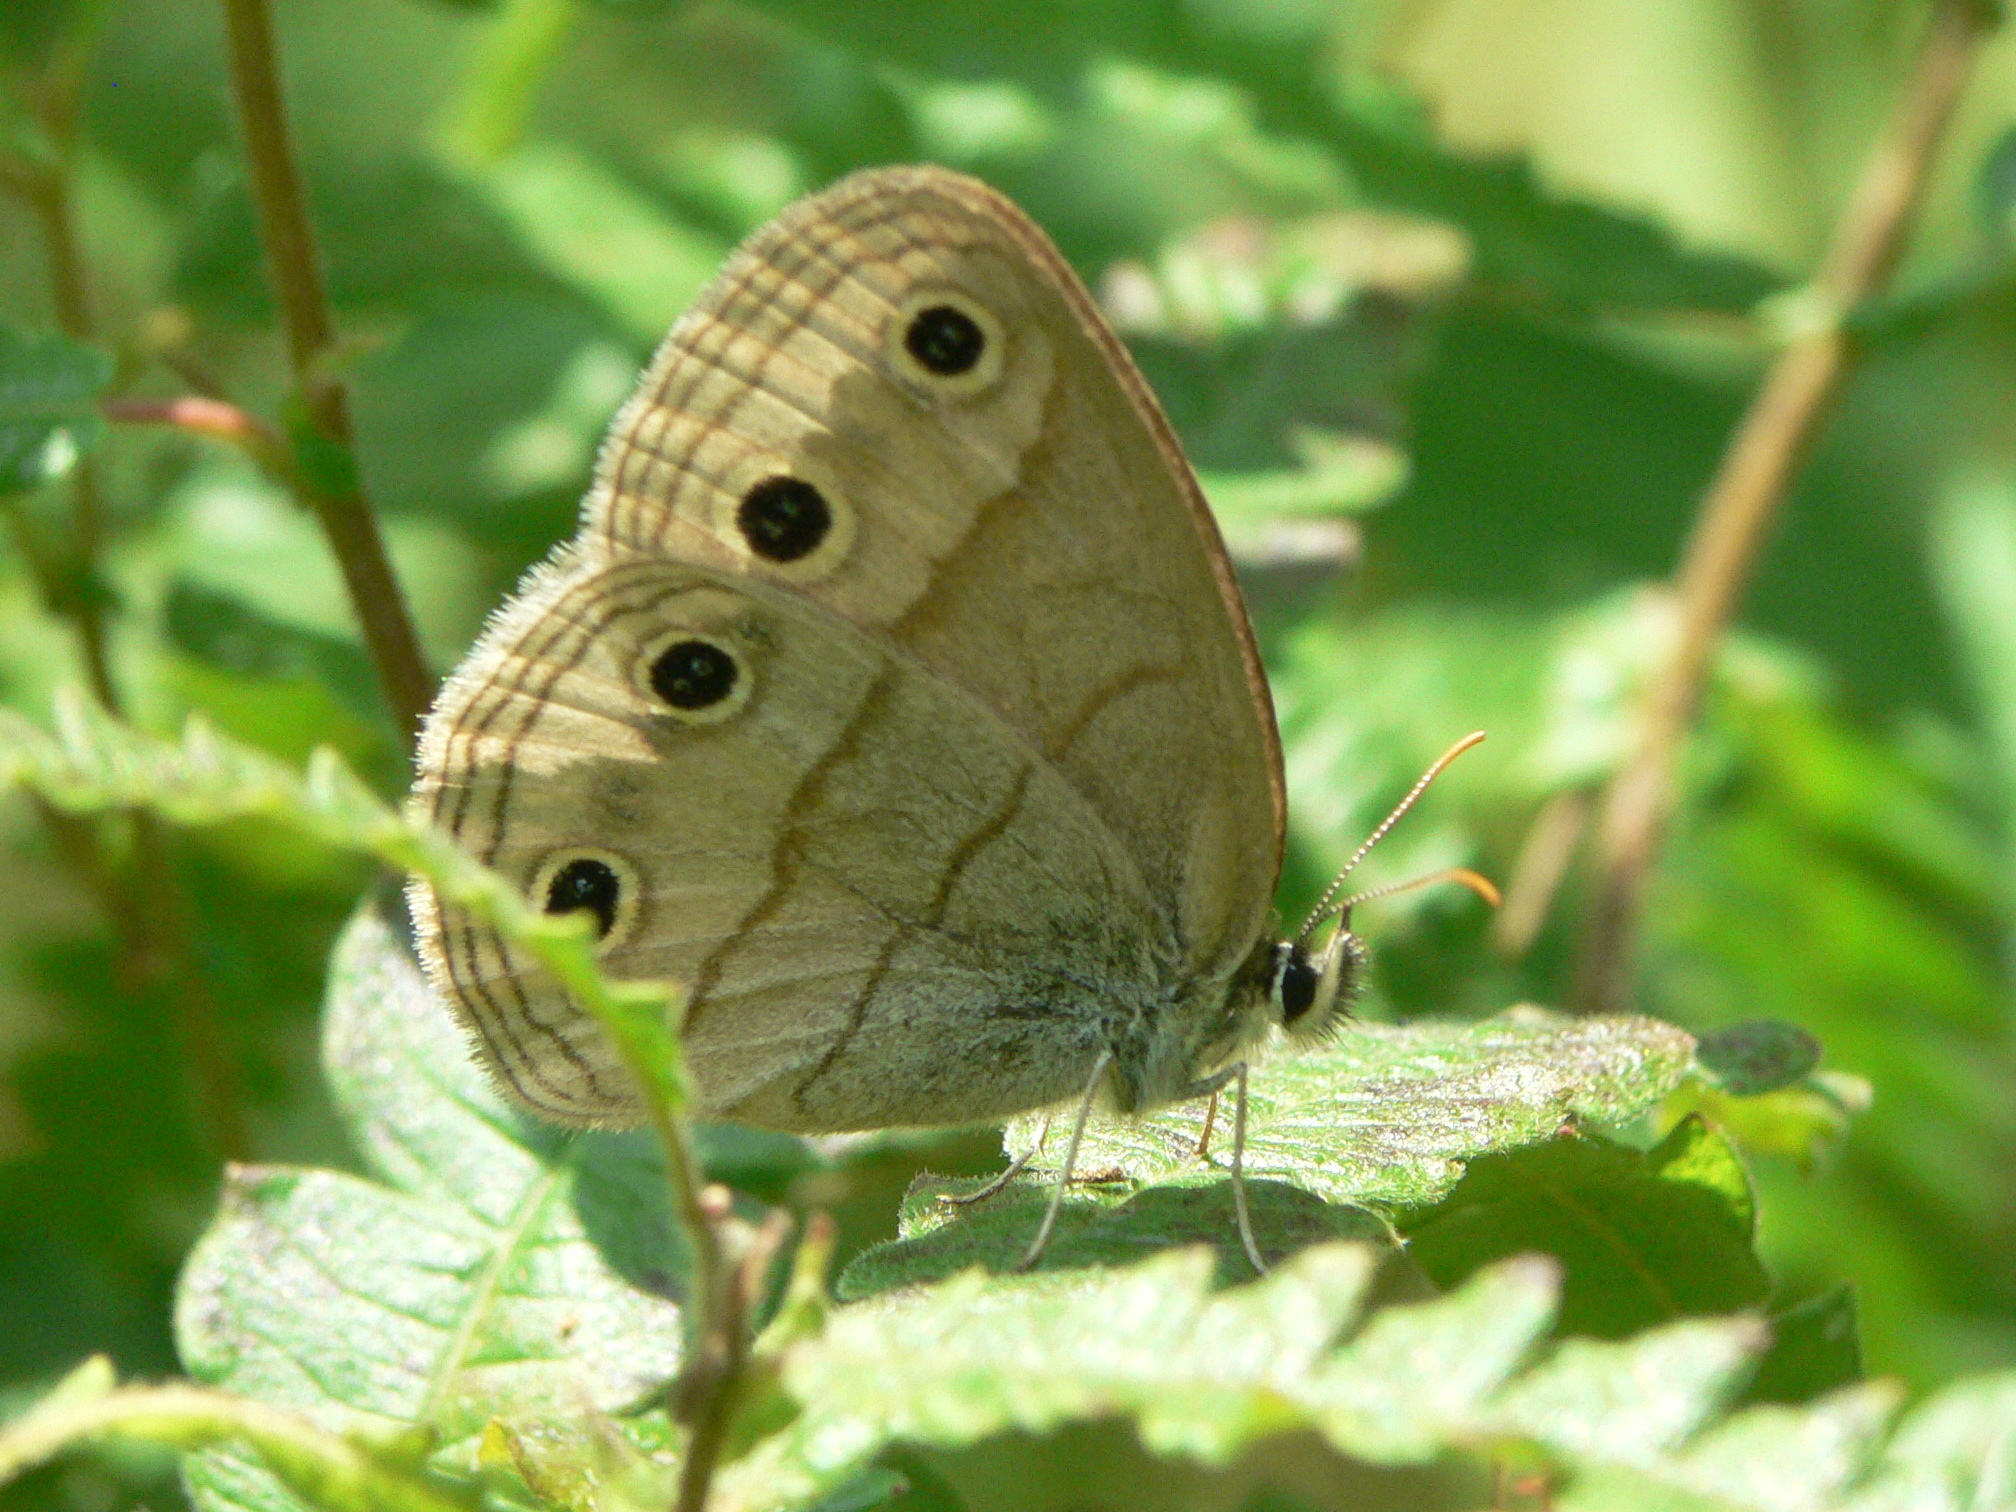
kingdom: Animalia
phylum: Arthropoda
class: Insecta
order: Lepidoptera
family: Nymphalidae
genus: Euptychia
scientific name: Euptychia cymela
